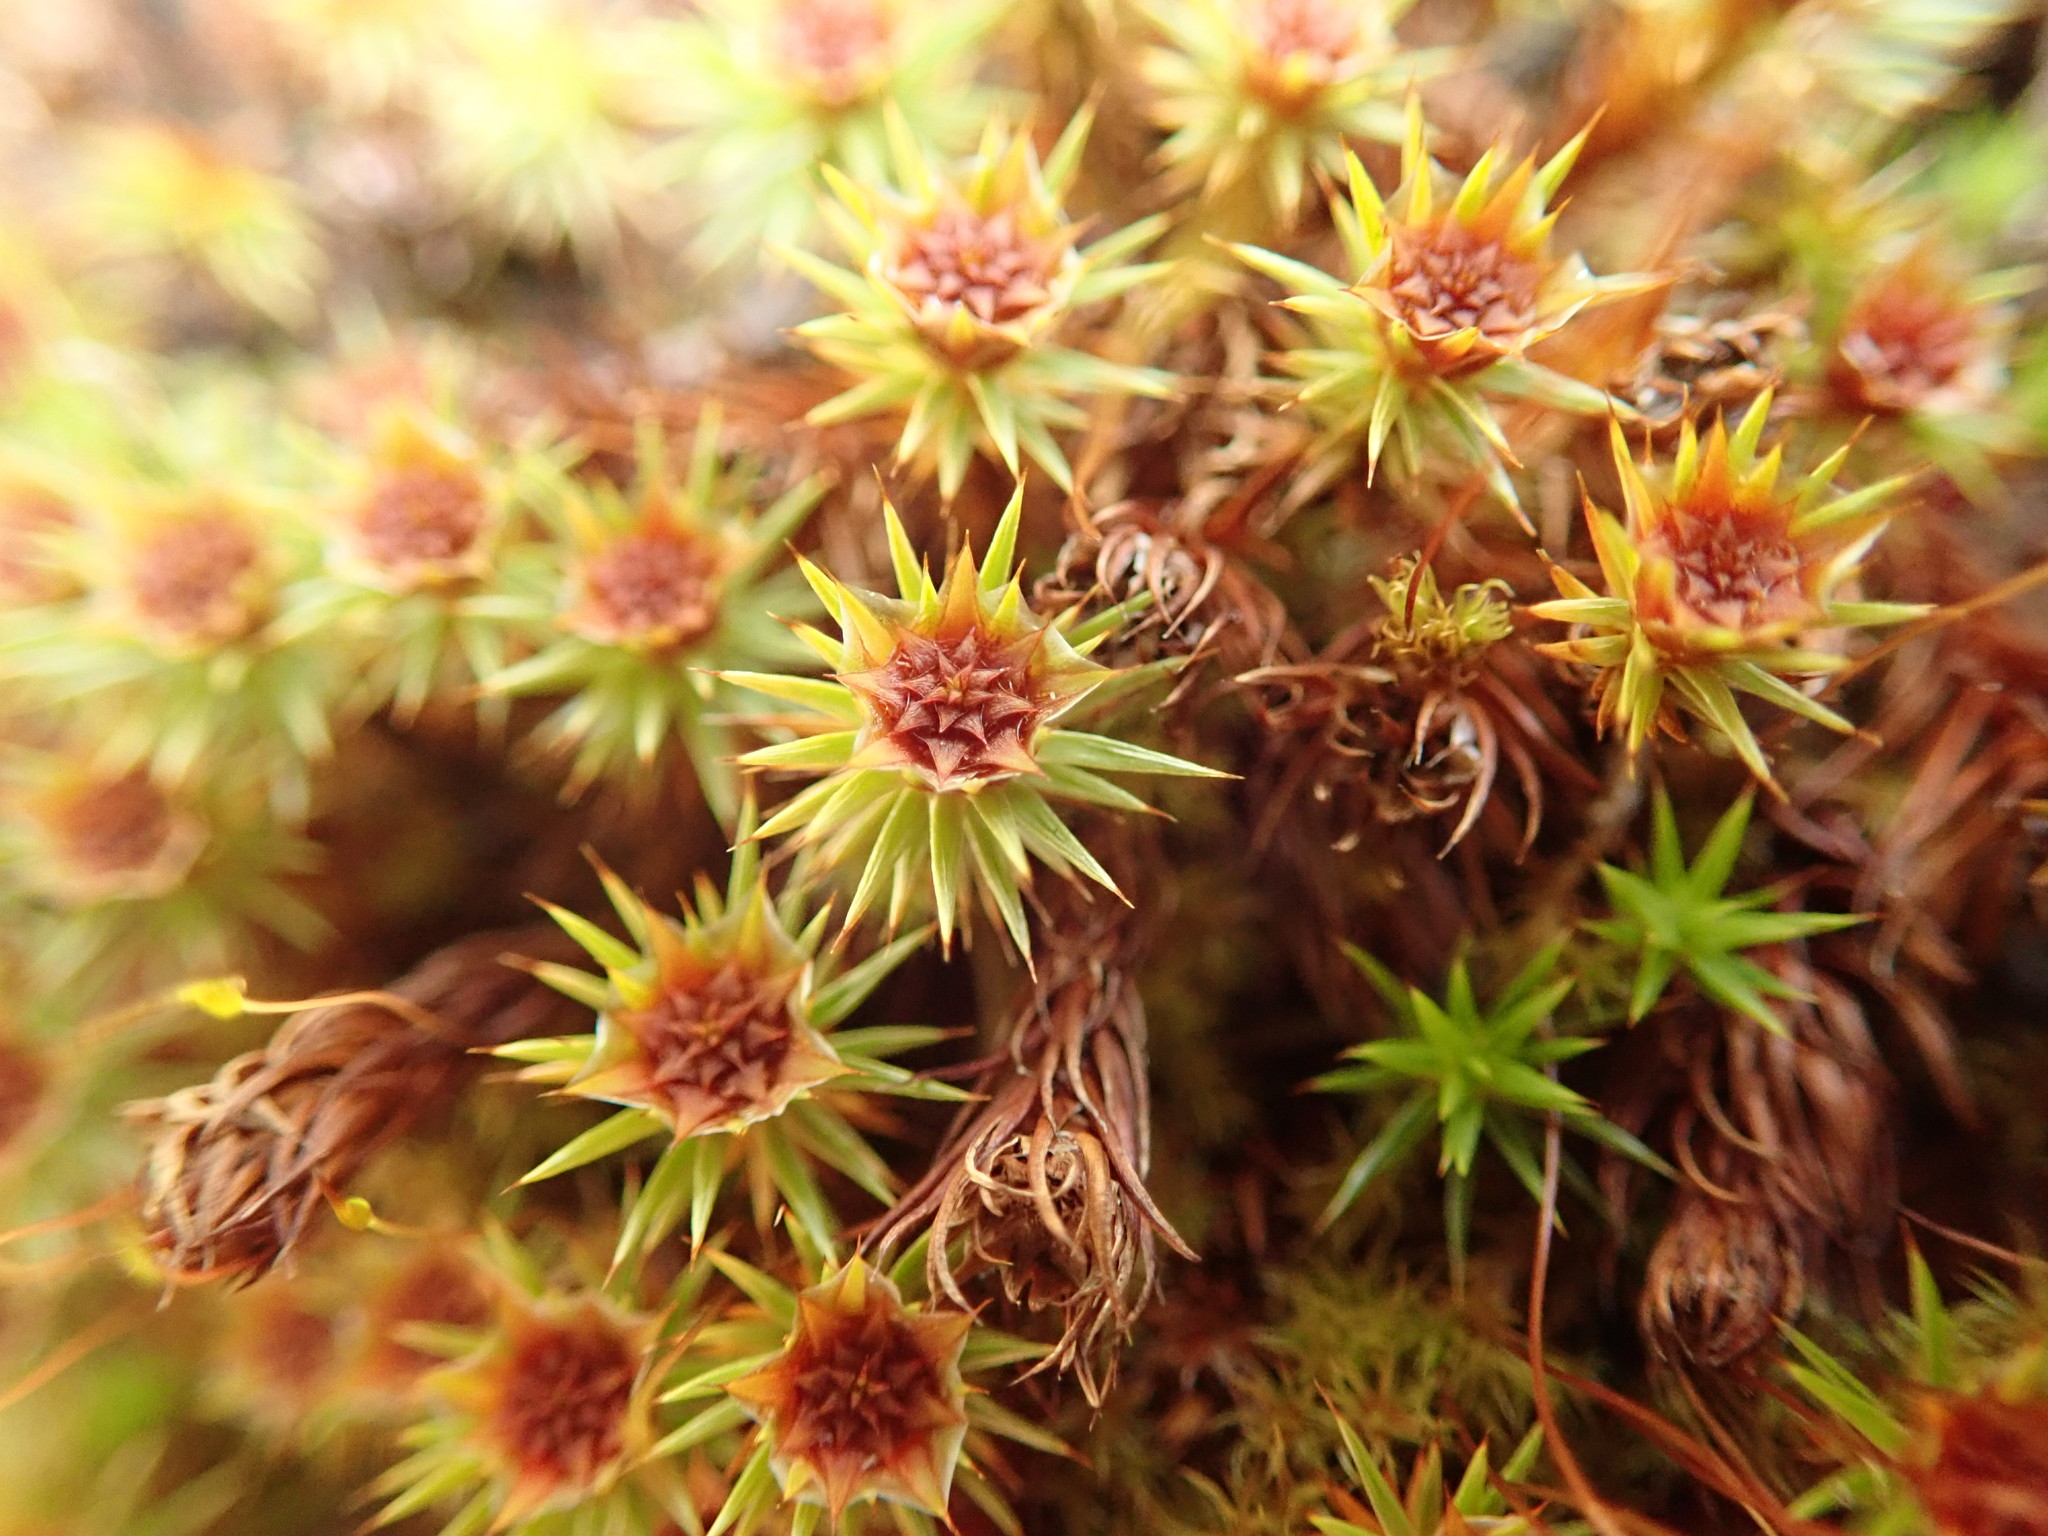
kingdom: Plantae
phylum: Bryophyta
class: Polytrichopsida
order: Polytrichales
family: Polytrichaceae
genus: Polytrichum
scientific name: Polytrichum juniperinum
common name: Juniper haircap moss
